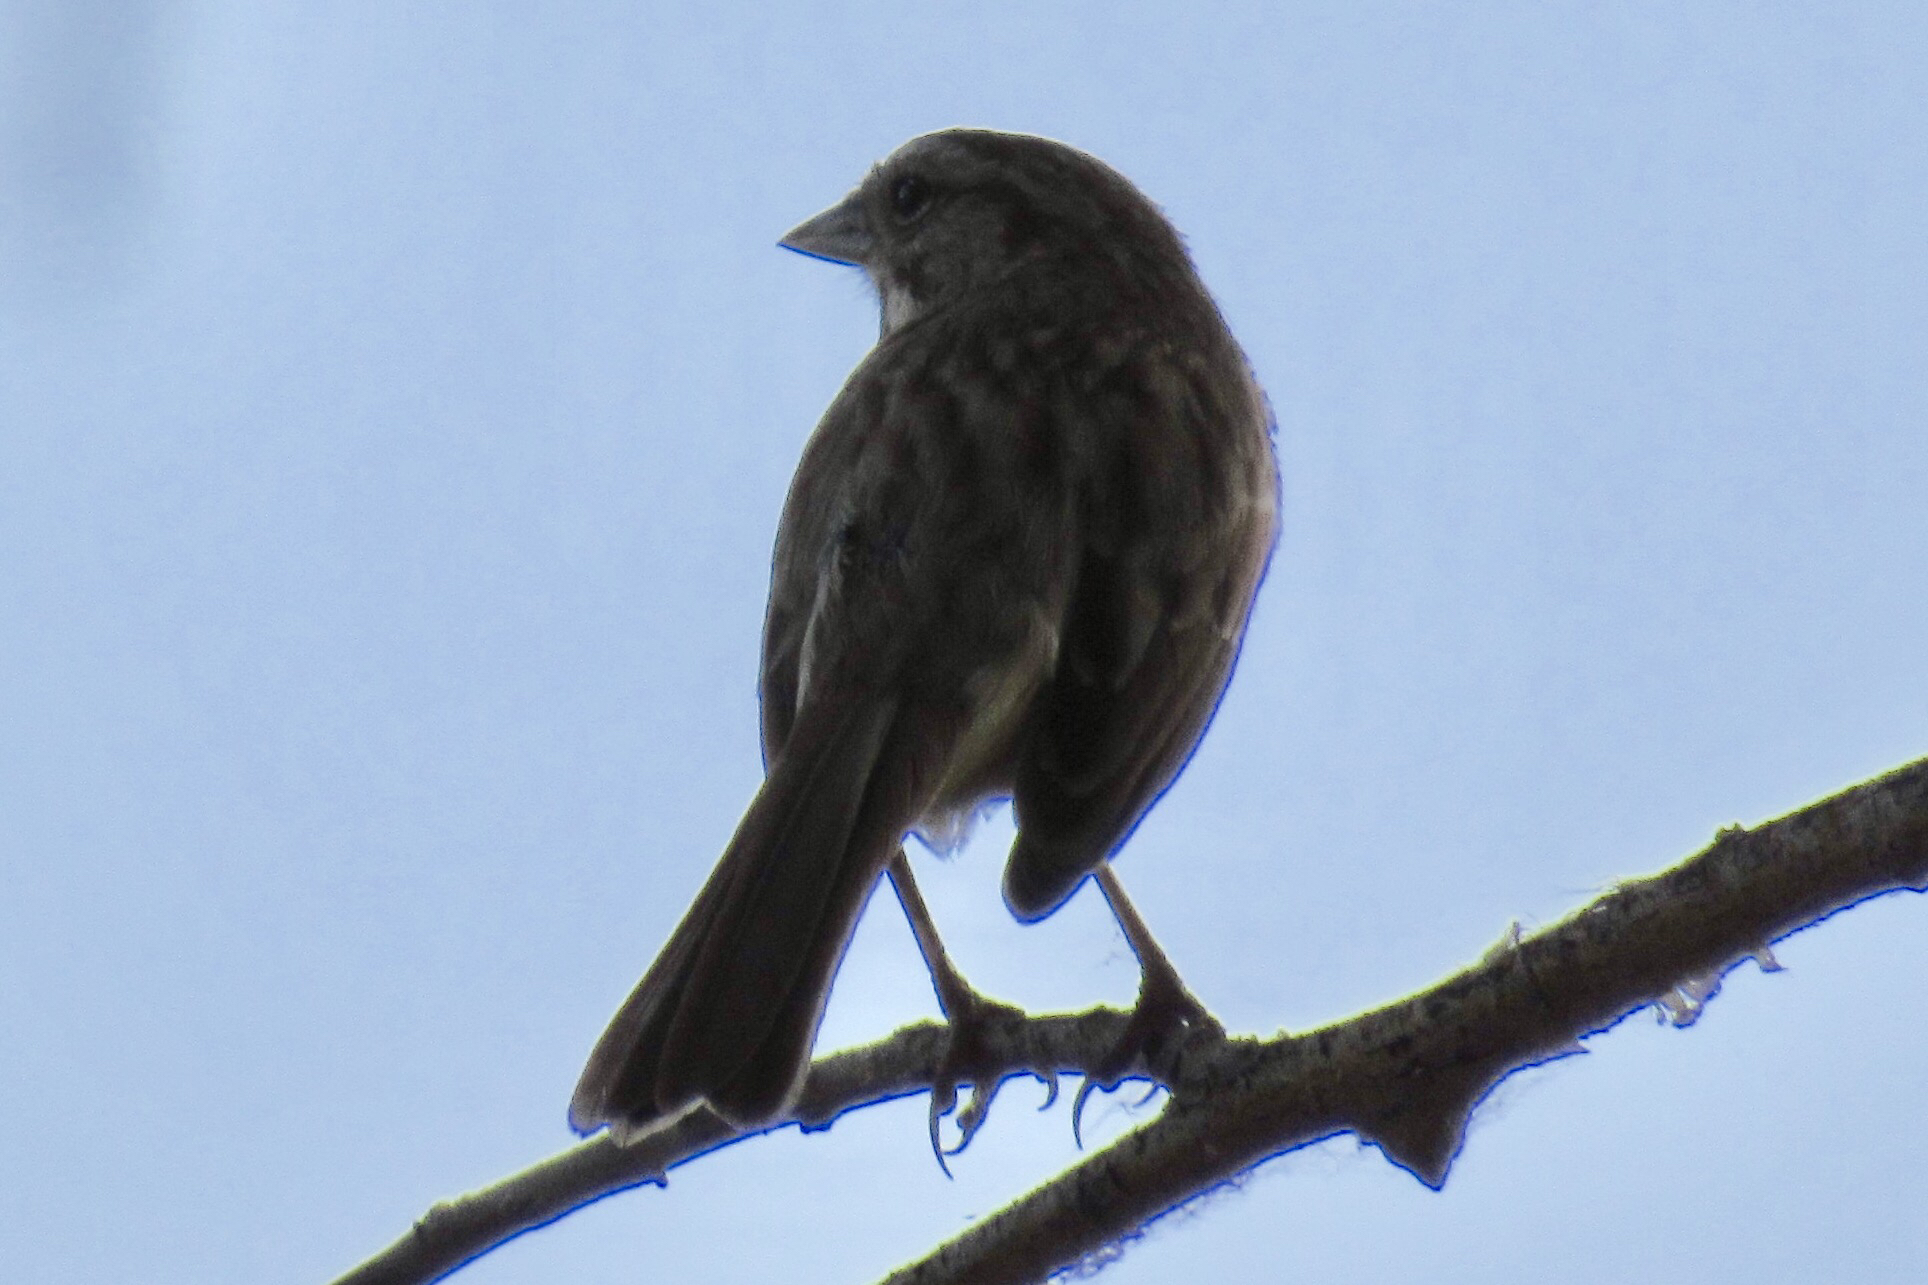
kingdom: Animalia
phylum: Chordata
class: Aves
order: Passeriformes
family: Passerellidae
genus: Melospiza
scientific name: Melospiza melodia
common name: Song sparrow
